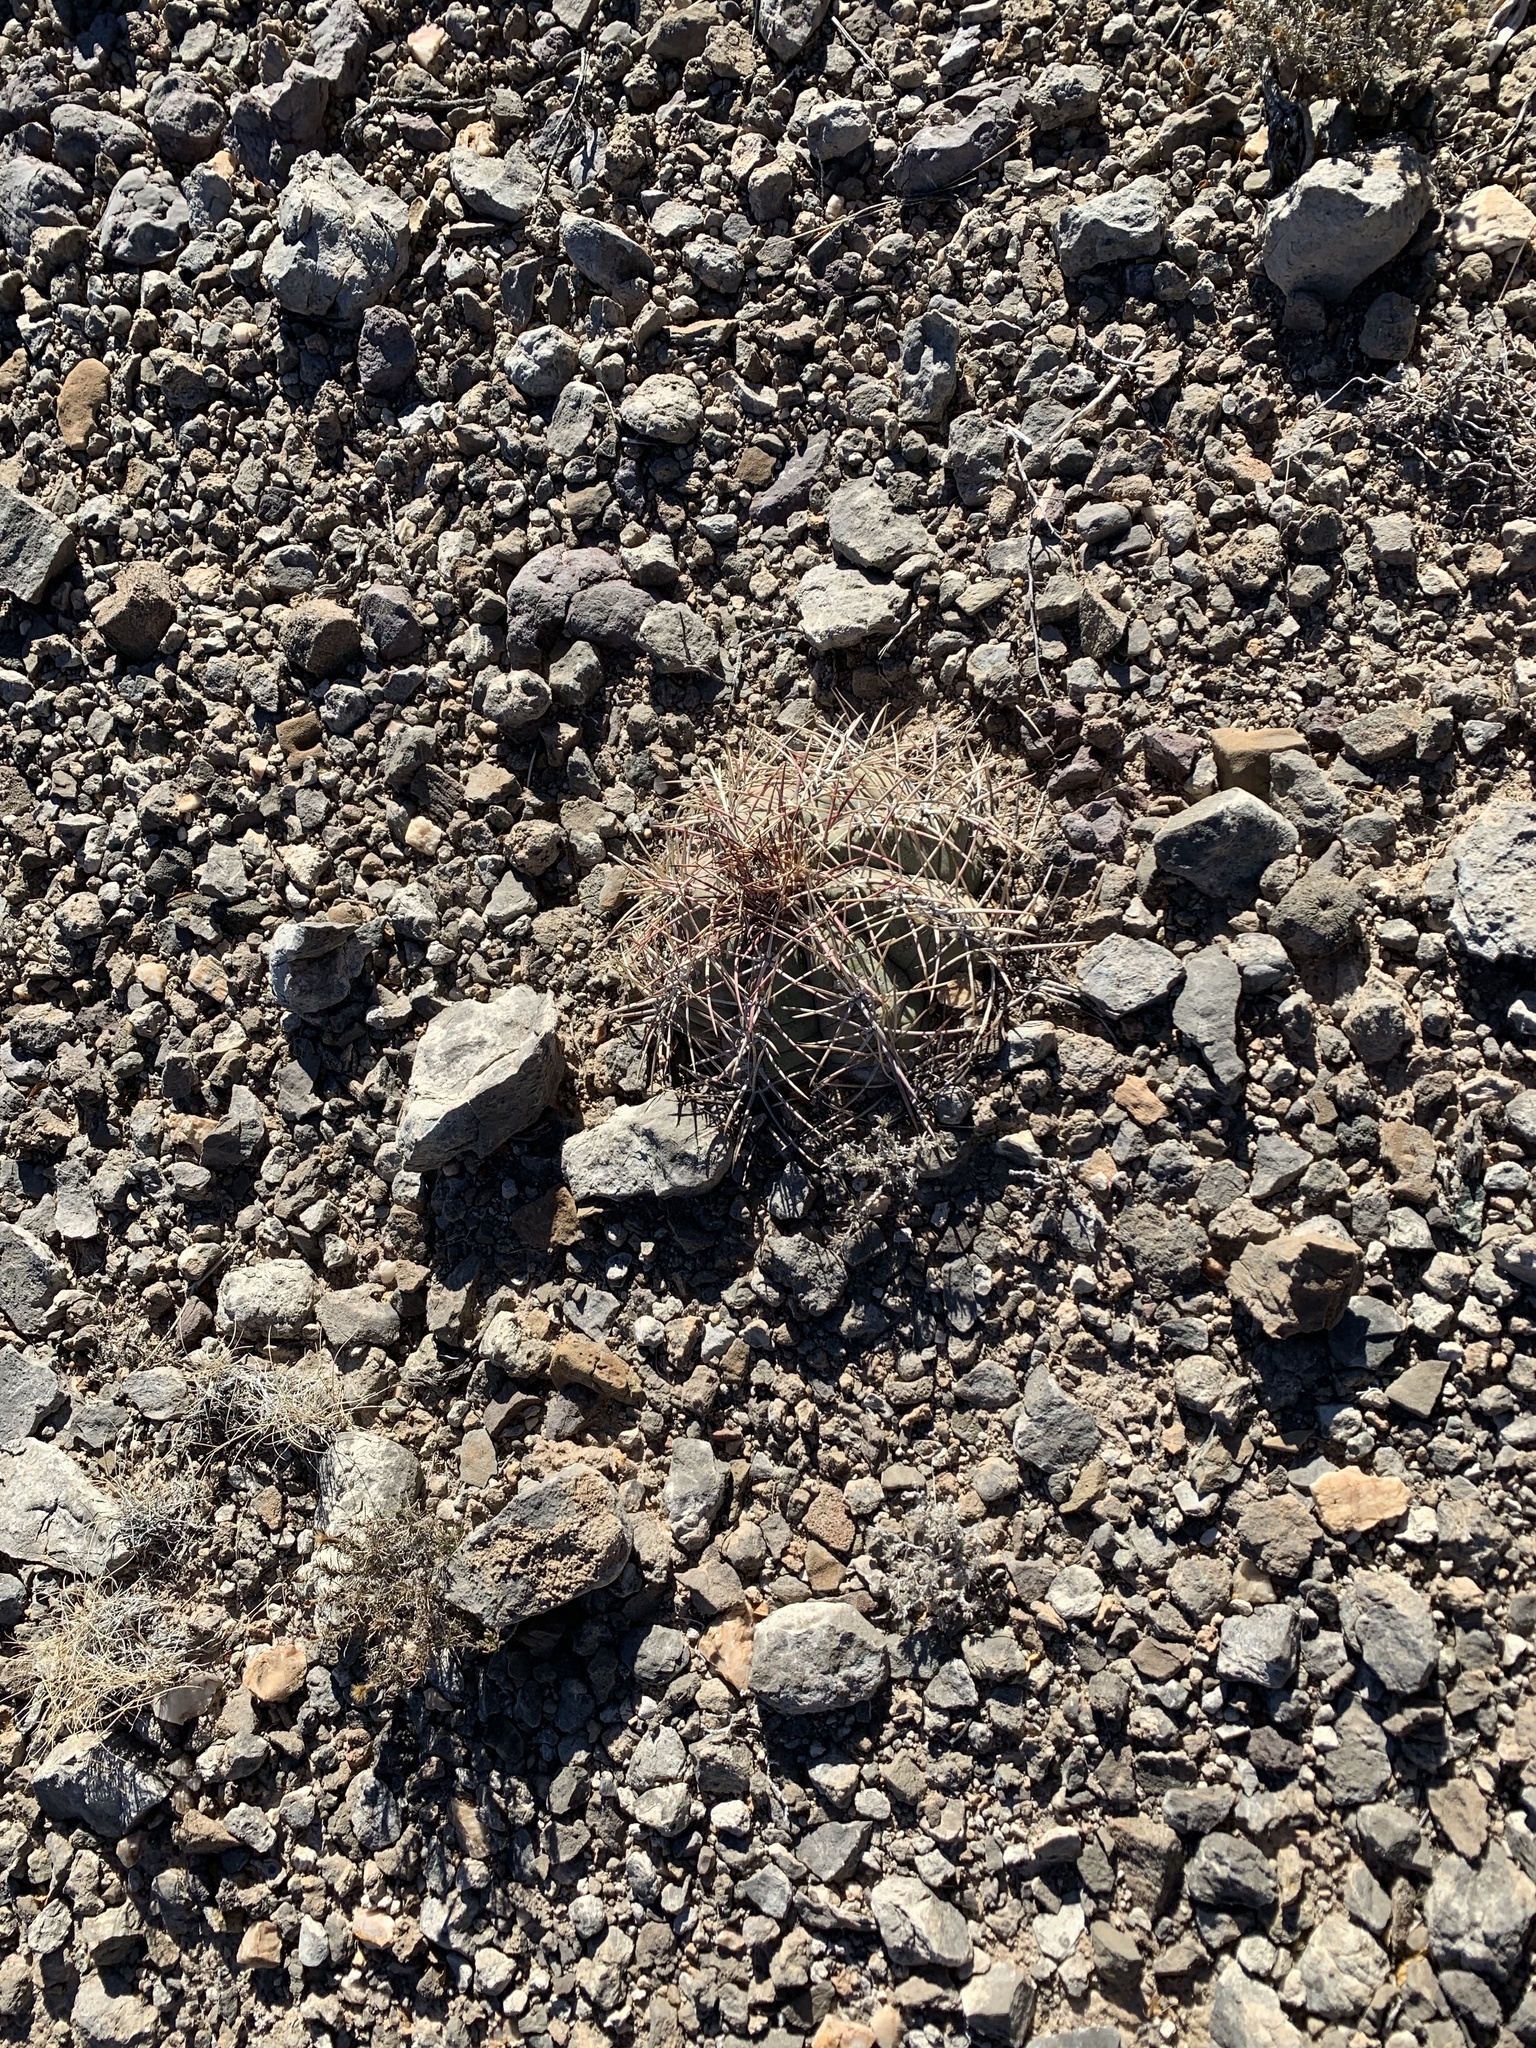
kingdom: Plantae
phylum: Tracheophyta
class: Magnoliopsida
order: Caryophyllales
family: Cactaceae
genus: Echinocactus
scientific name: Echinocactus horizonthalonius
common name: Devilshead
